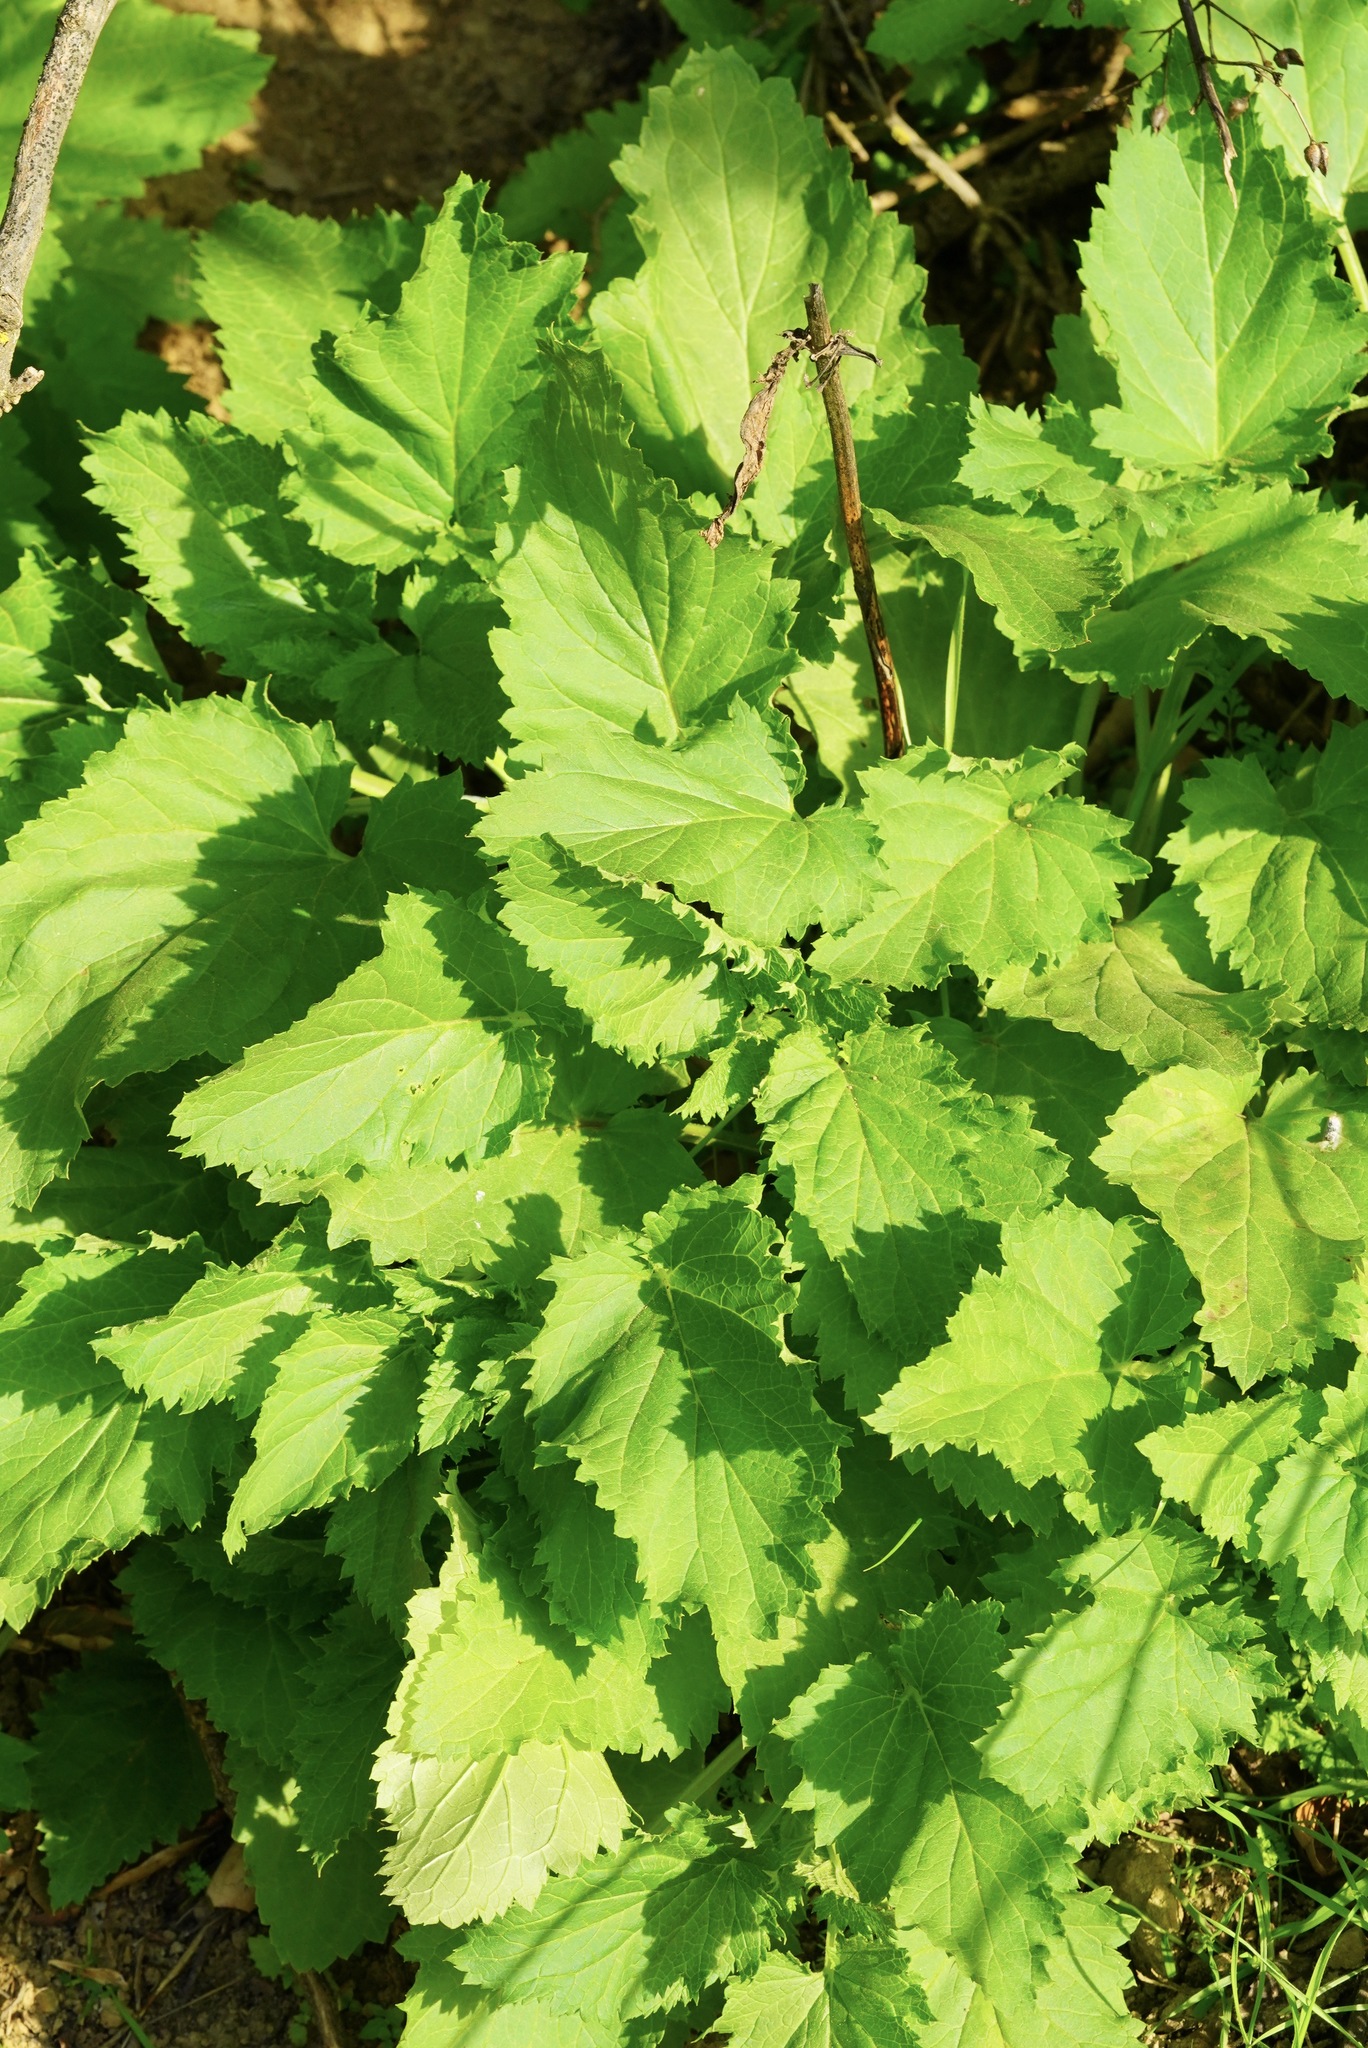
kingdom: Plantae
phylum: Tracheophyta
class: Magnoliopsida
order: Lamiales
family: Scrophulariaceae
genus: Scrophularia
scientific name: Scrophularia californica
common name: California figwort
